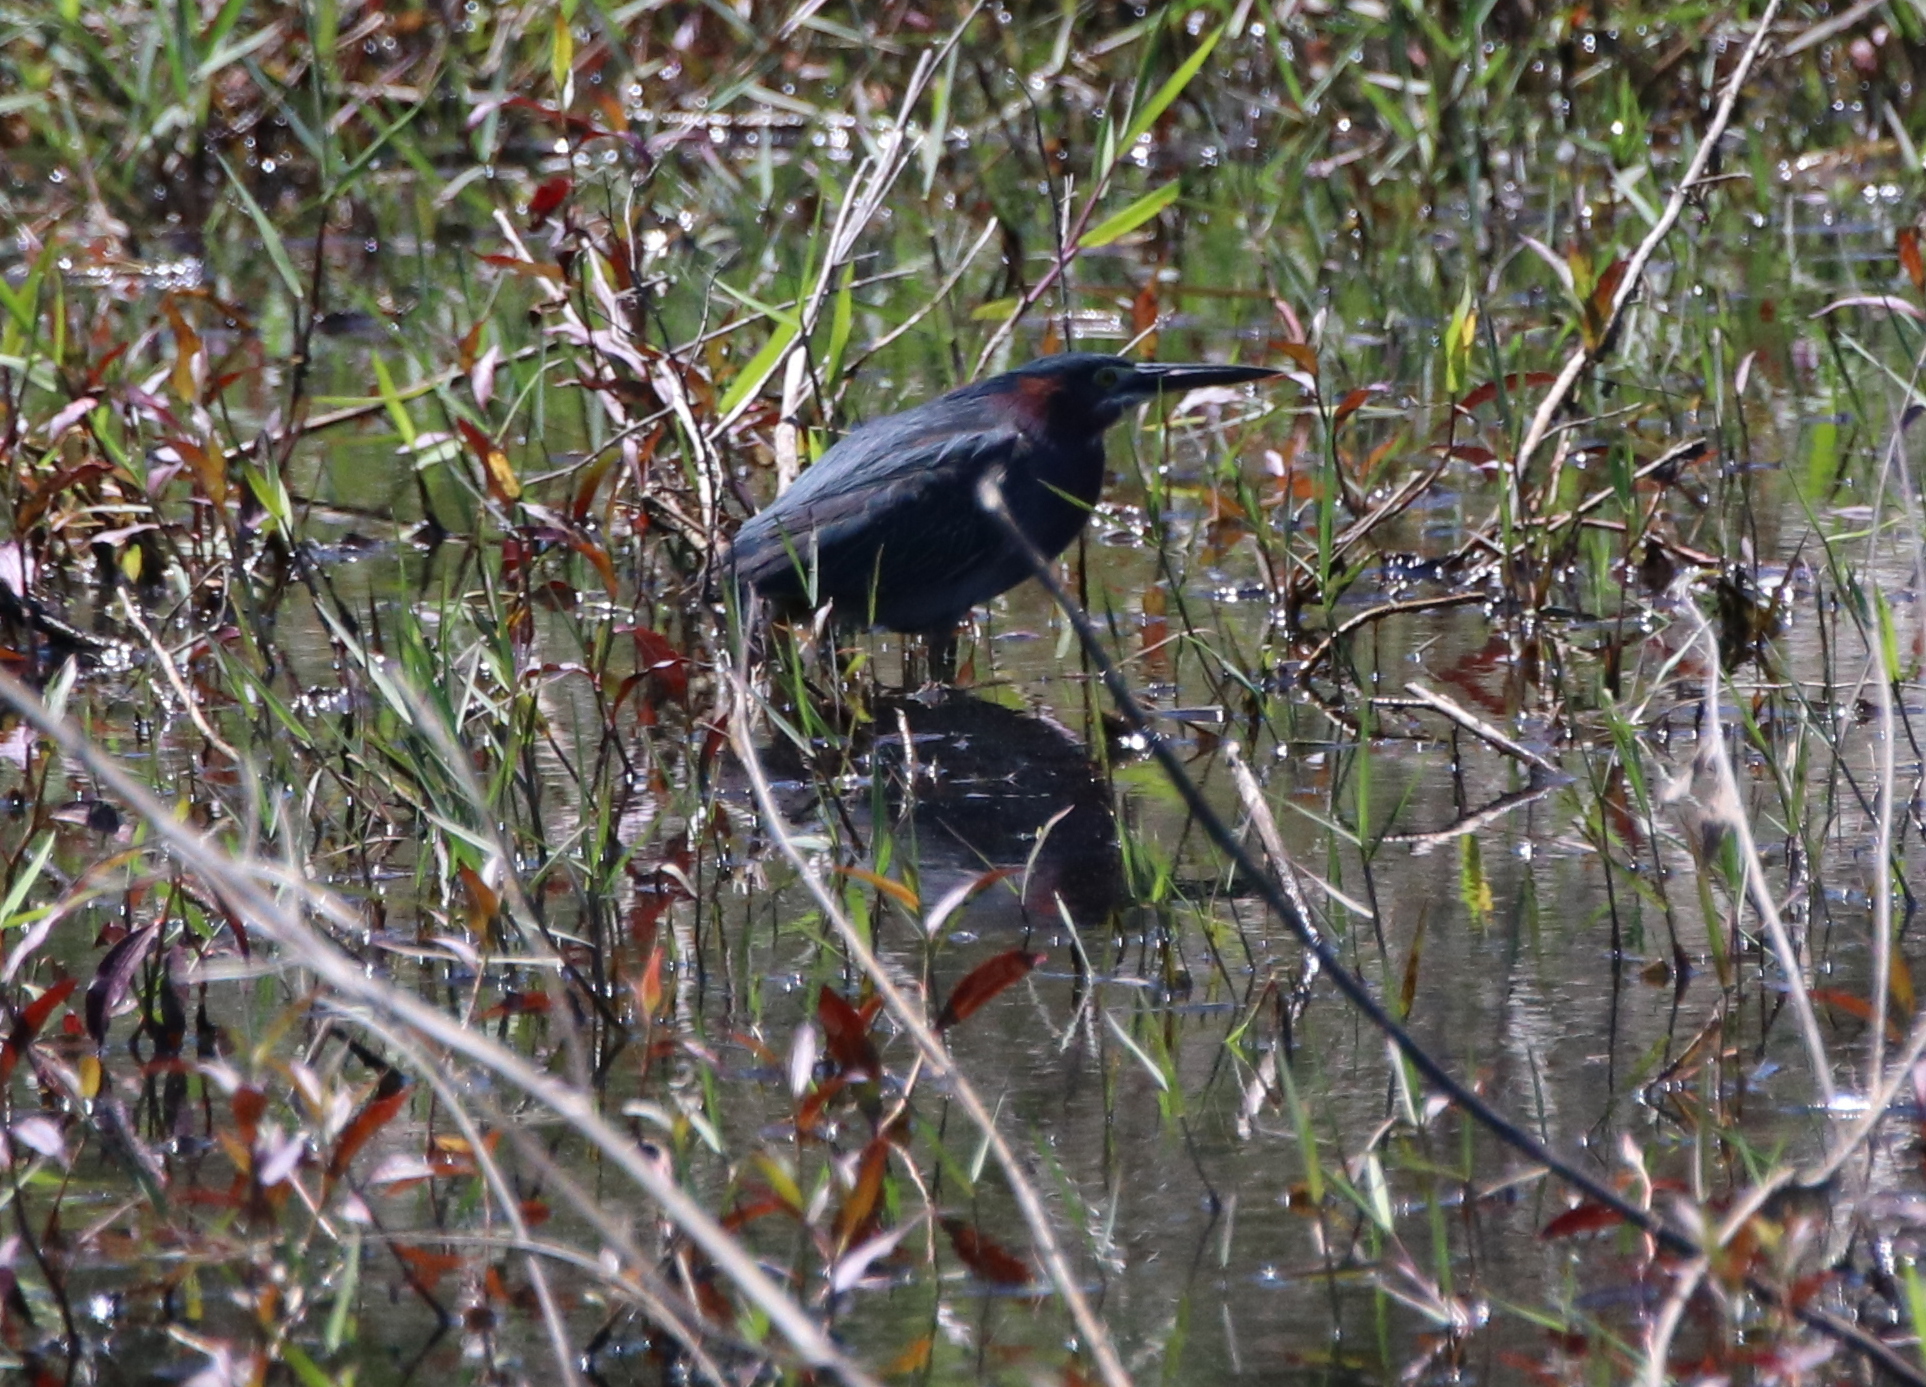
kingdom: Animalia
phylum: Chordata
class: Aves
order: Pelecaniformes
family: Ardeidae
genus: Butorides
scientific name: Butorides virescens
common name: Green heron
